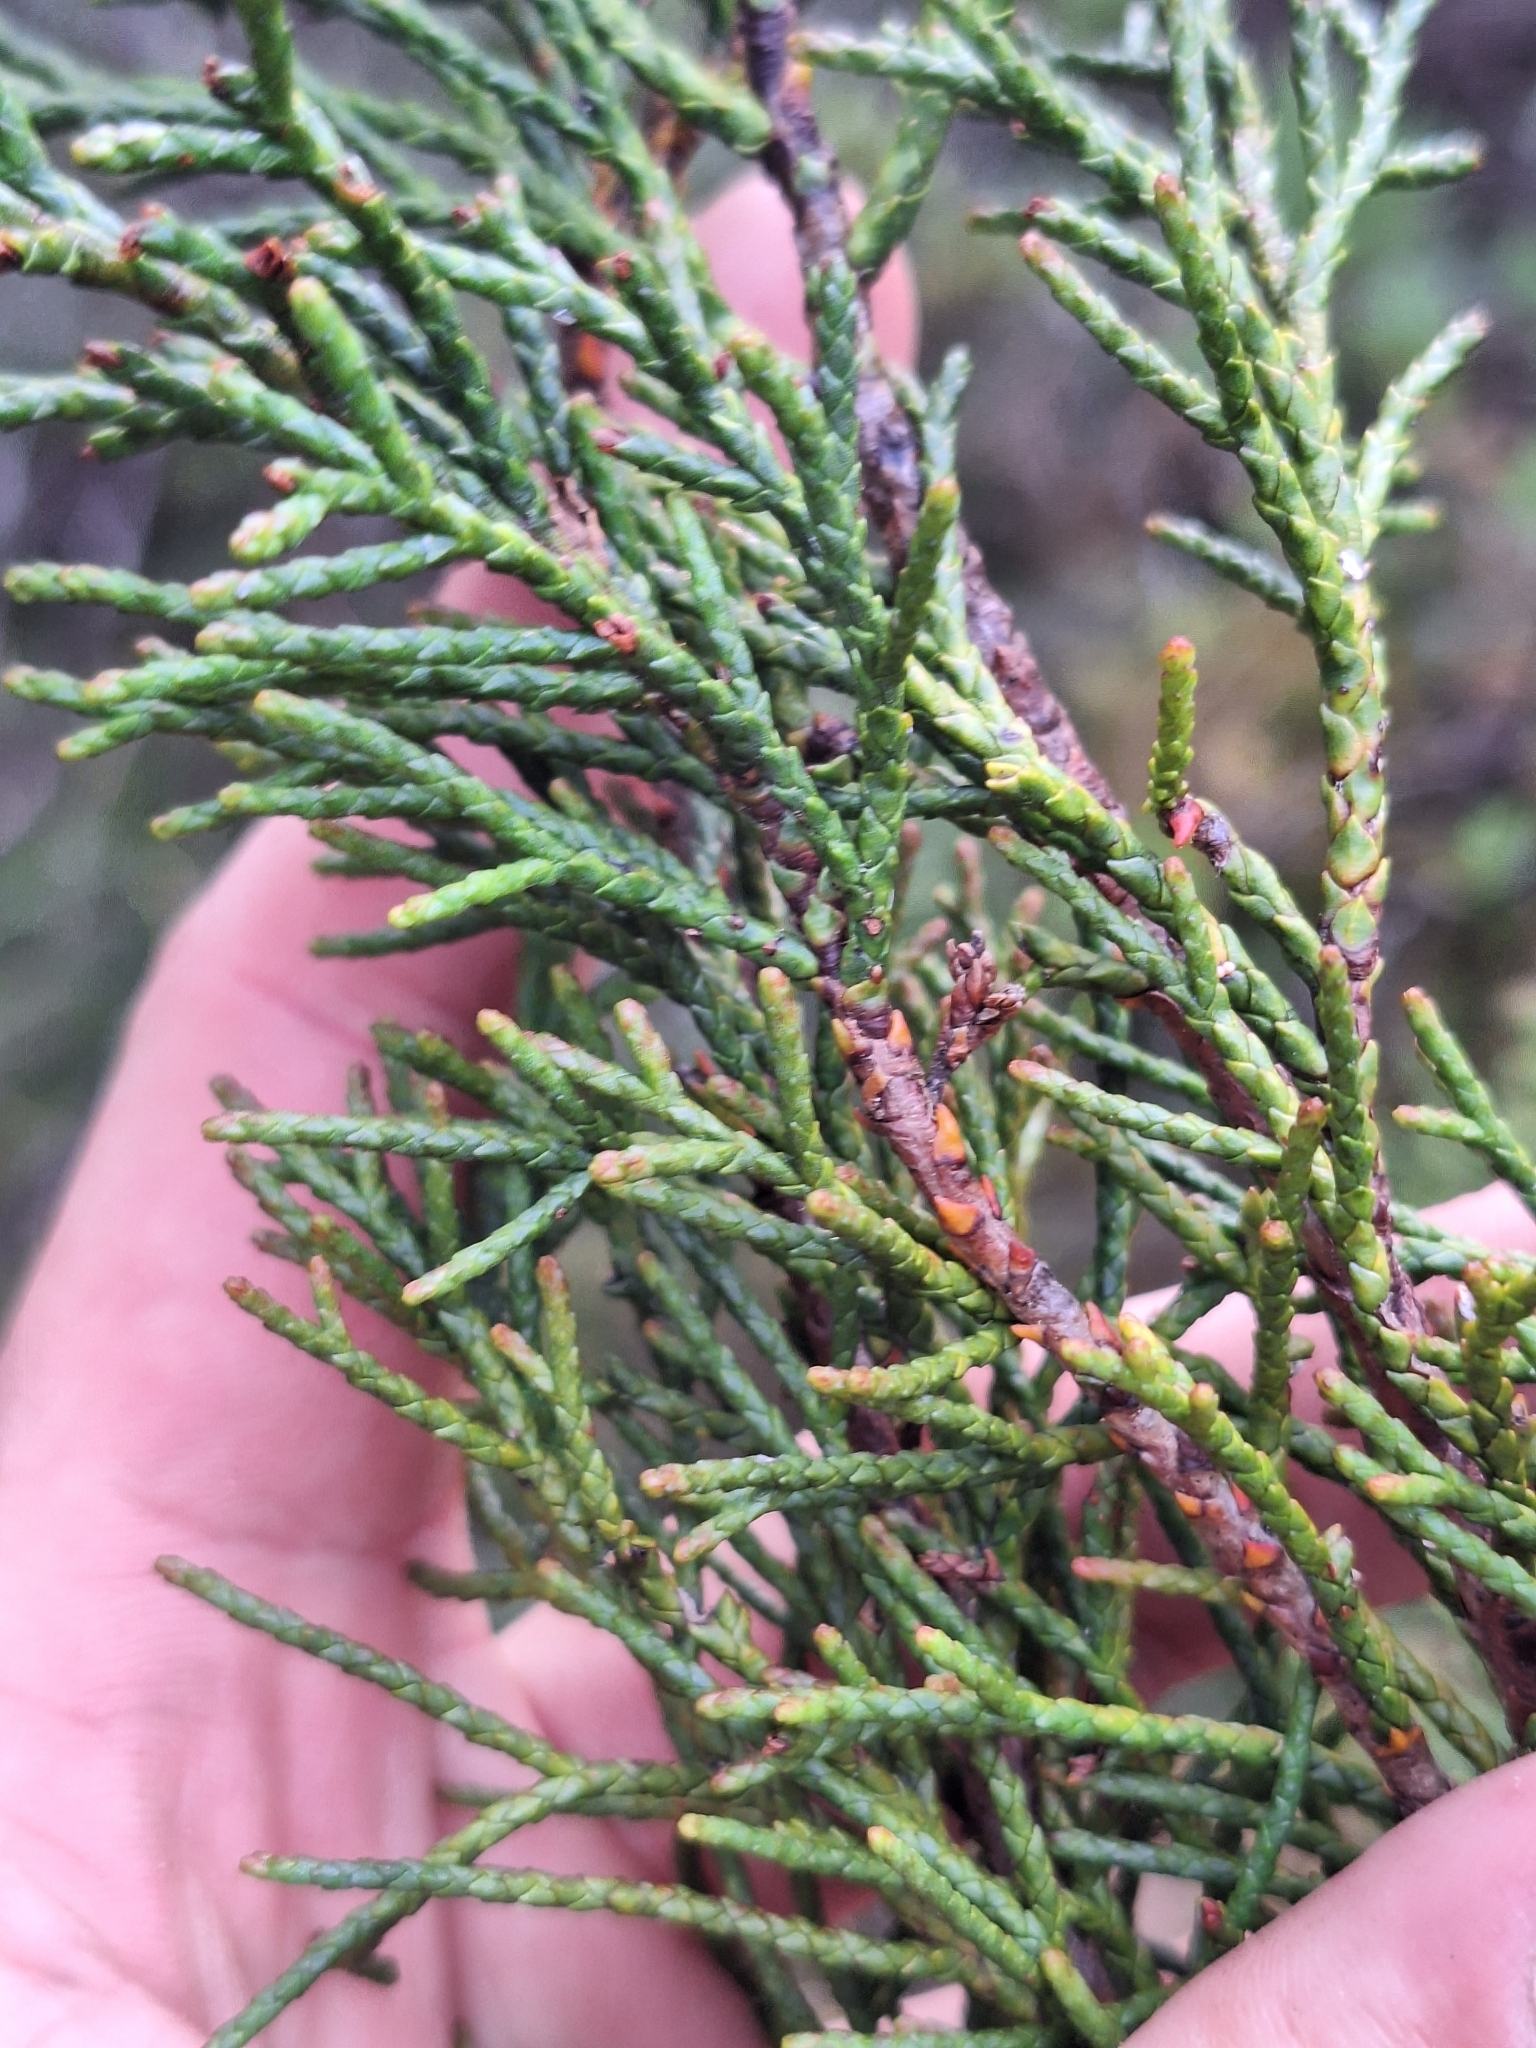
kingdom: Plantae
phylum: Tracheophyta
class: Pinopsida
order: Pinales
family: Podocarpaceae
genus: Halocarpus
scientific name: Halocarpus bidwillii
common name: Bog pine
